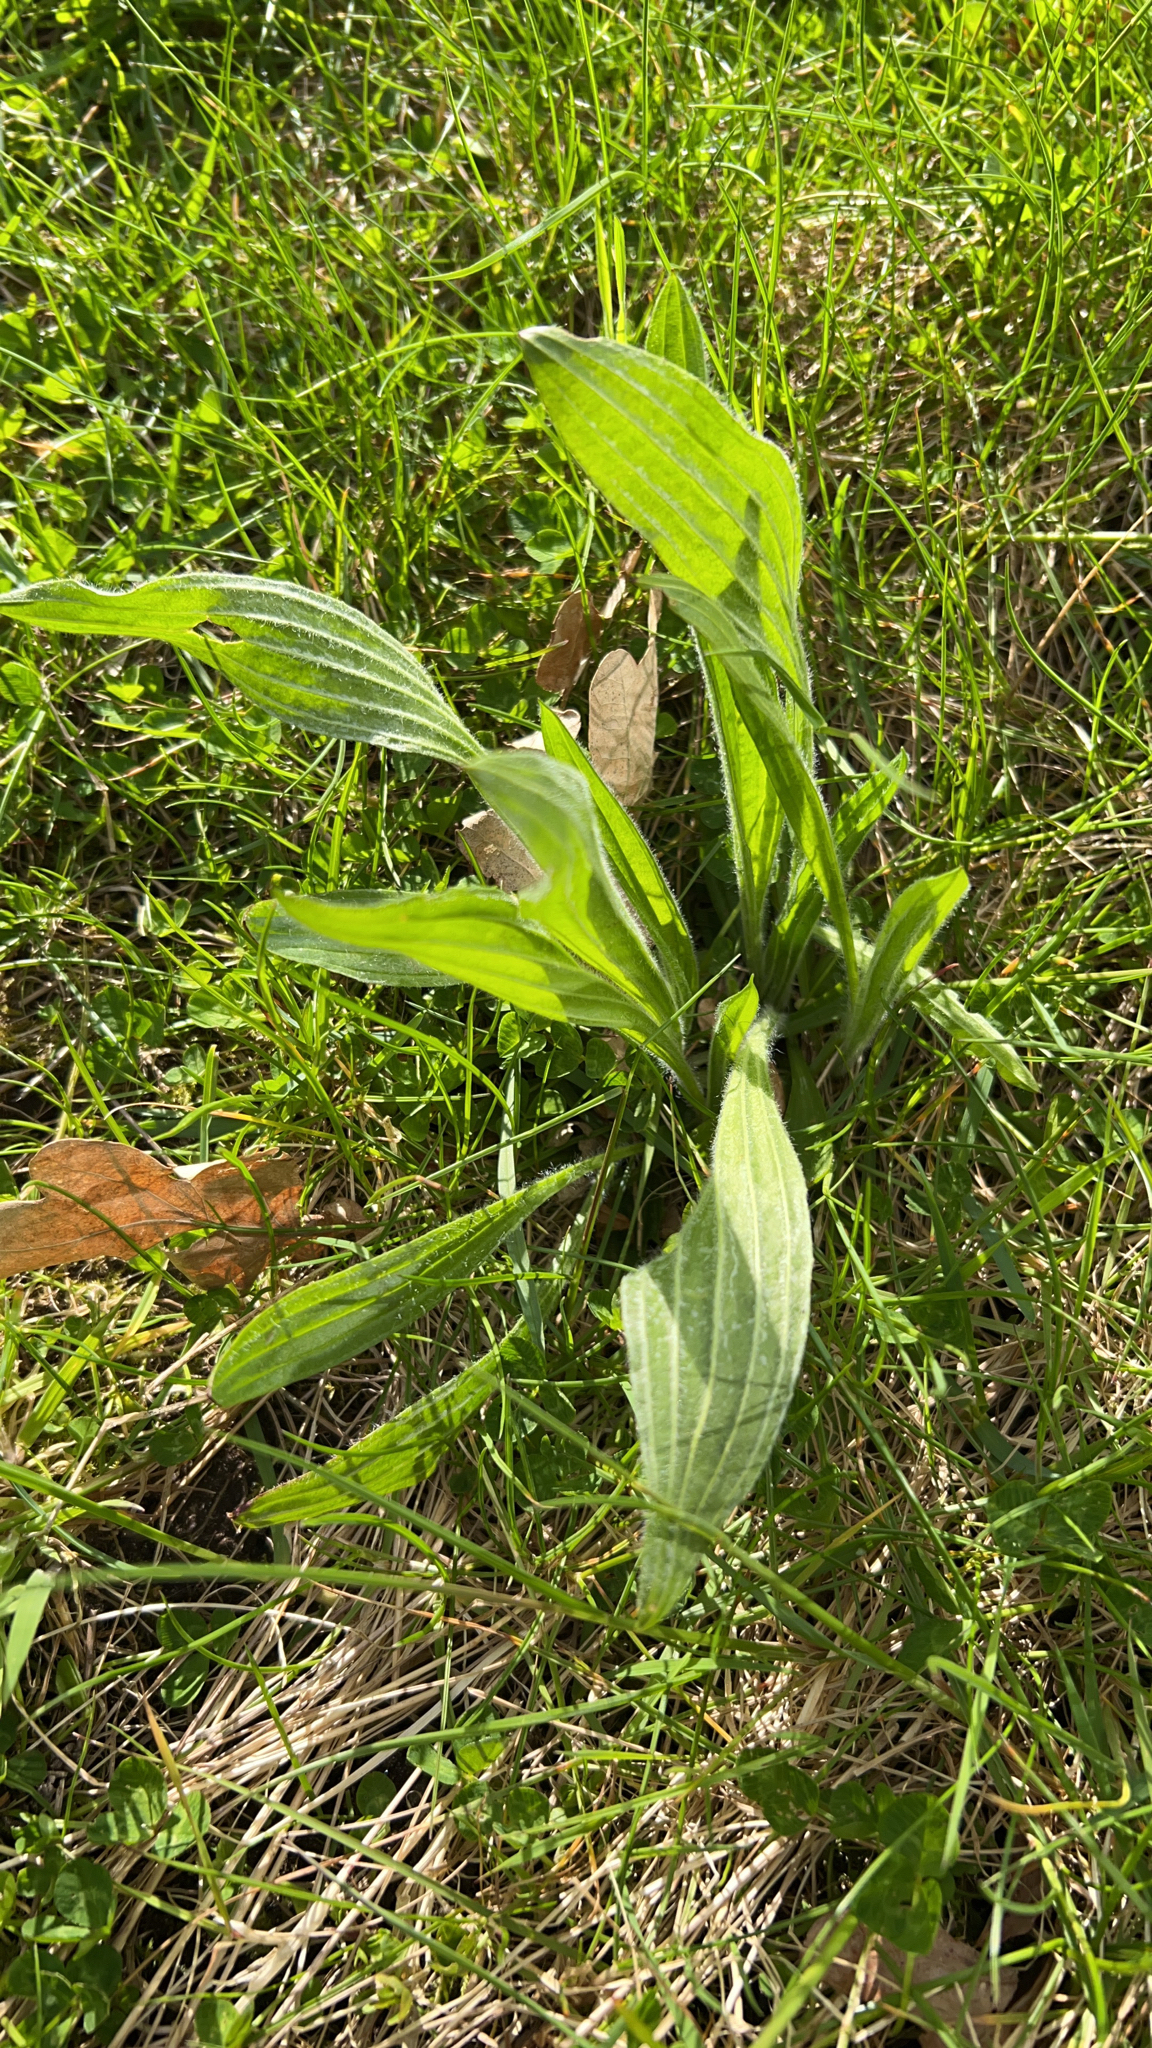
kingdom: Plantae
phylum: Tracheophyta
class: Magnoliopsida
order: Lamiales
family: Plantaginaceae
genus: Plantago
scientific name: Plantago lanceolata
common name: Ribwort plantain
